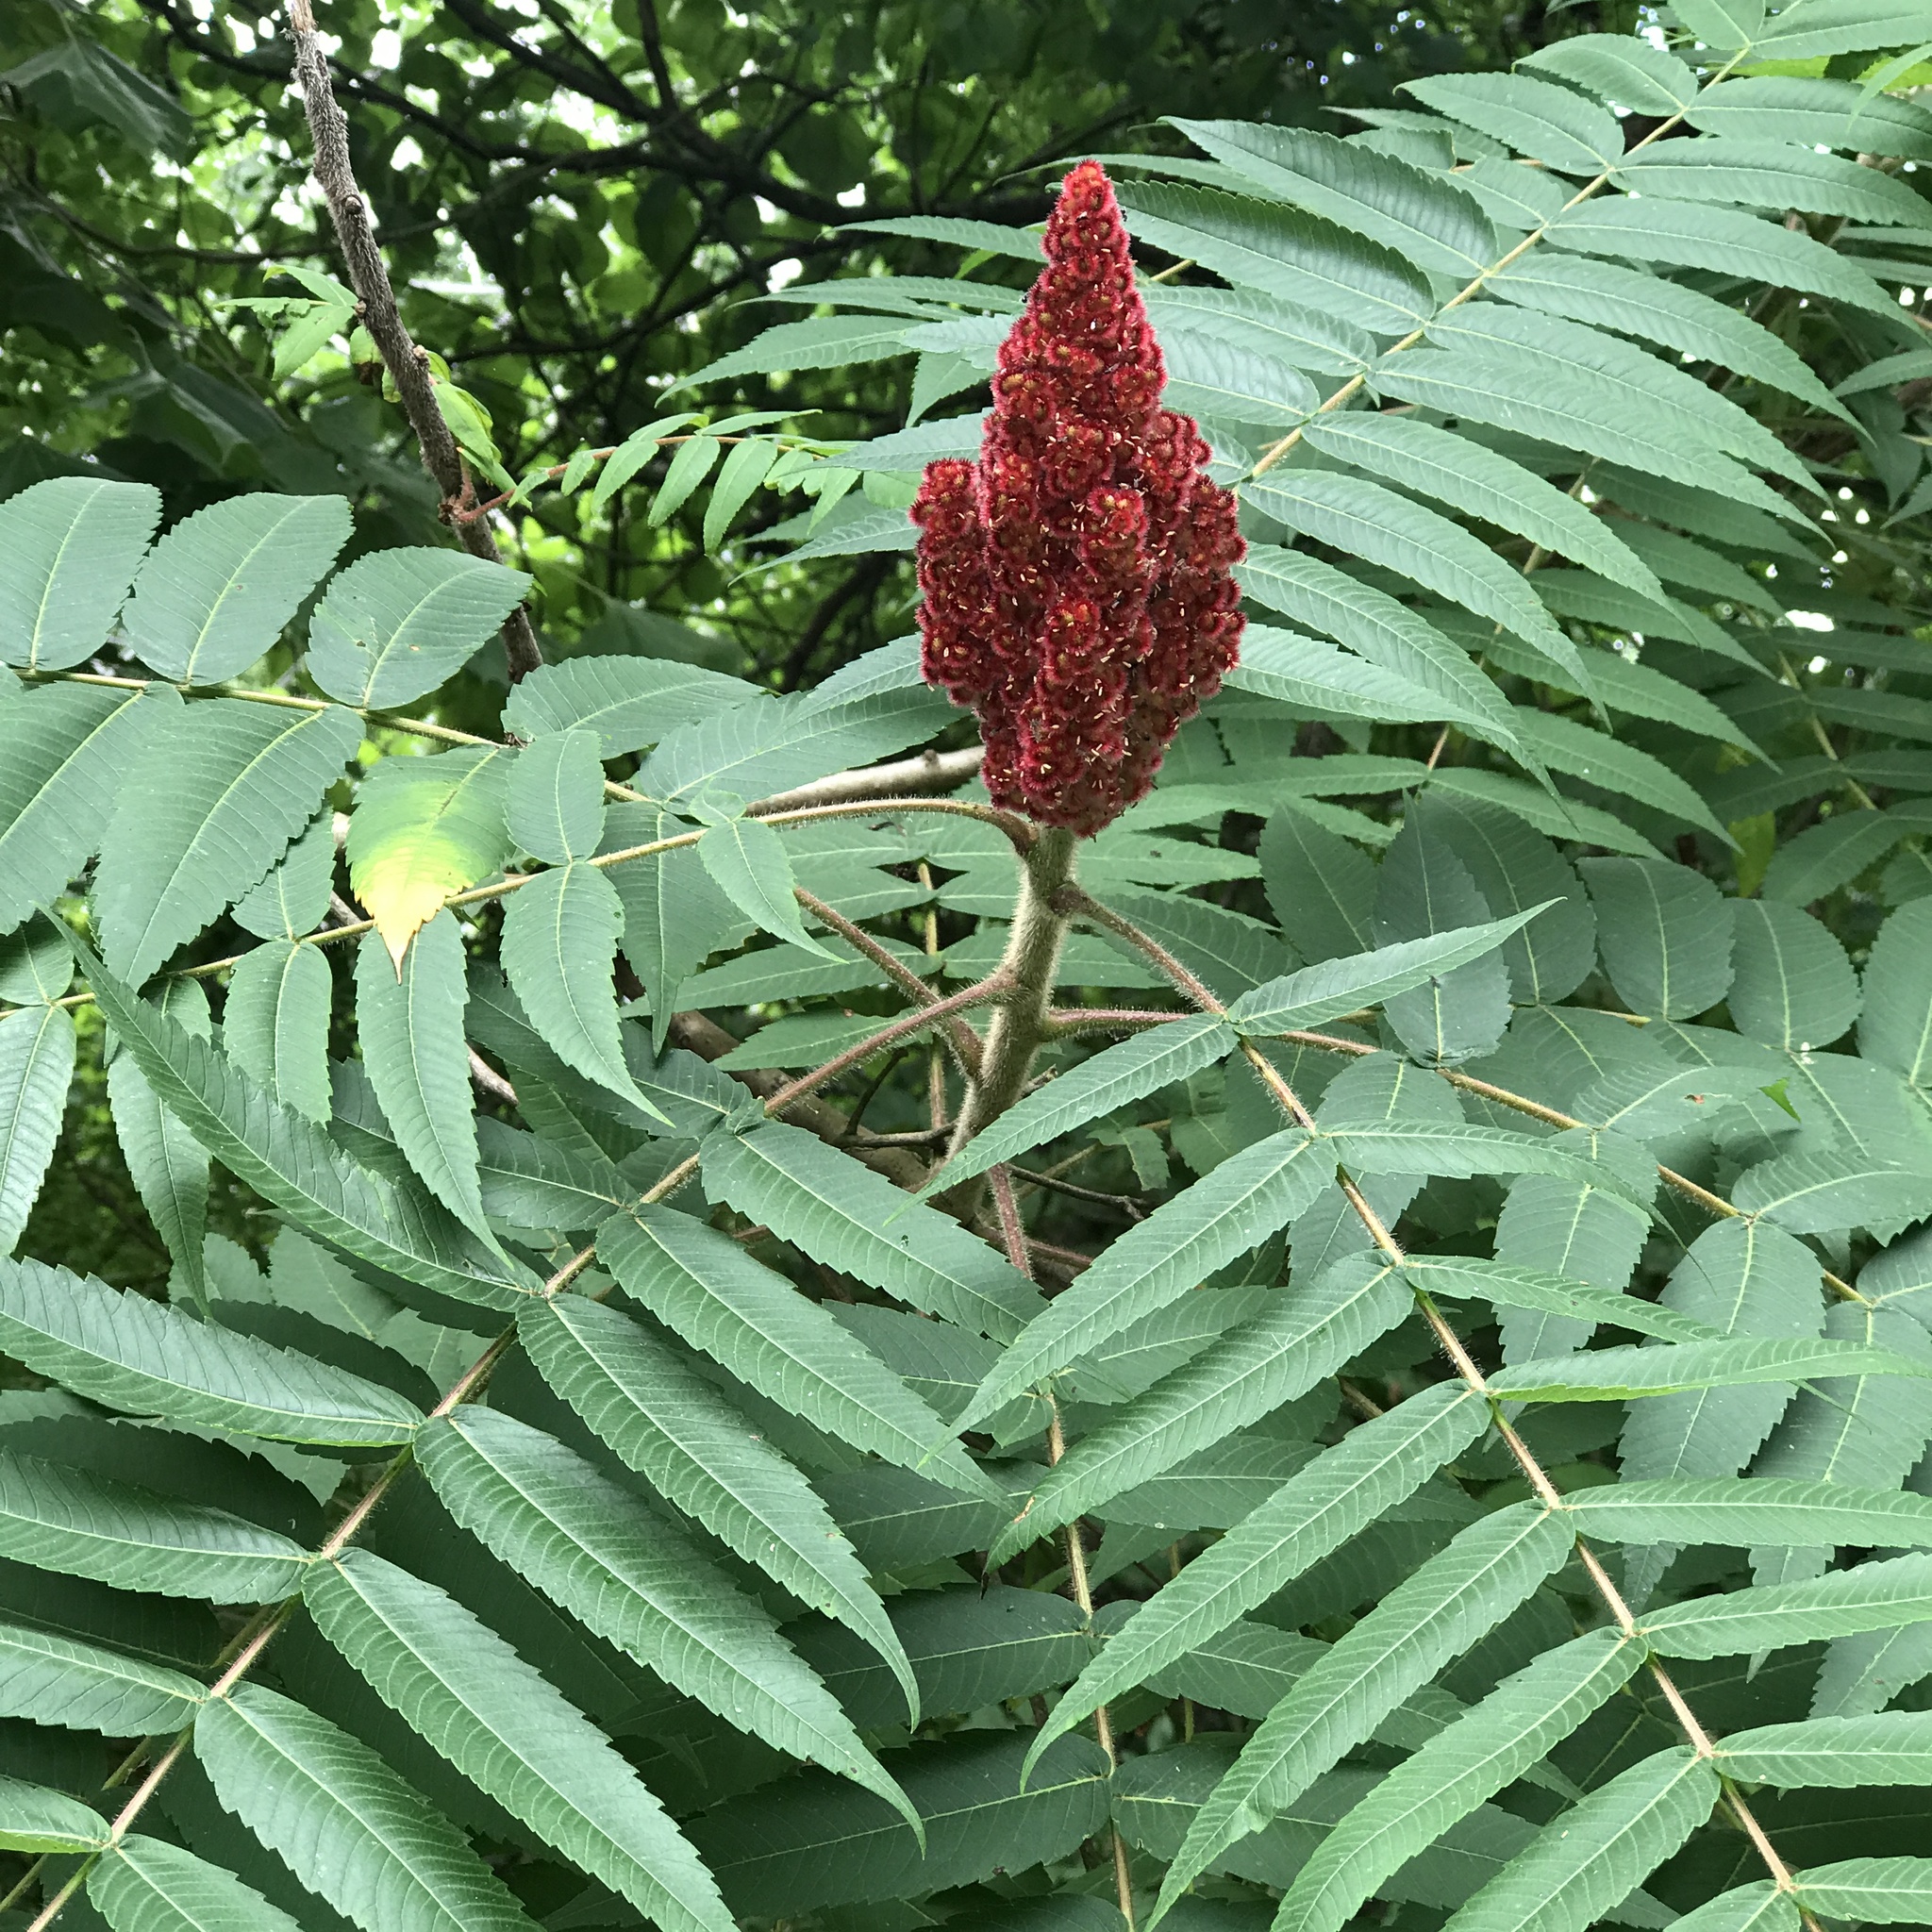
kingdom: Plantae
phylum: Tracheophyta
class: Magnoliopsida
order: Sapindales
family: Anacardiaceae
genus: Rhus
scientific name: Rhus typhina
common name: Staghorn sumac
